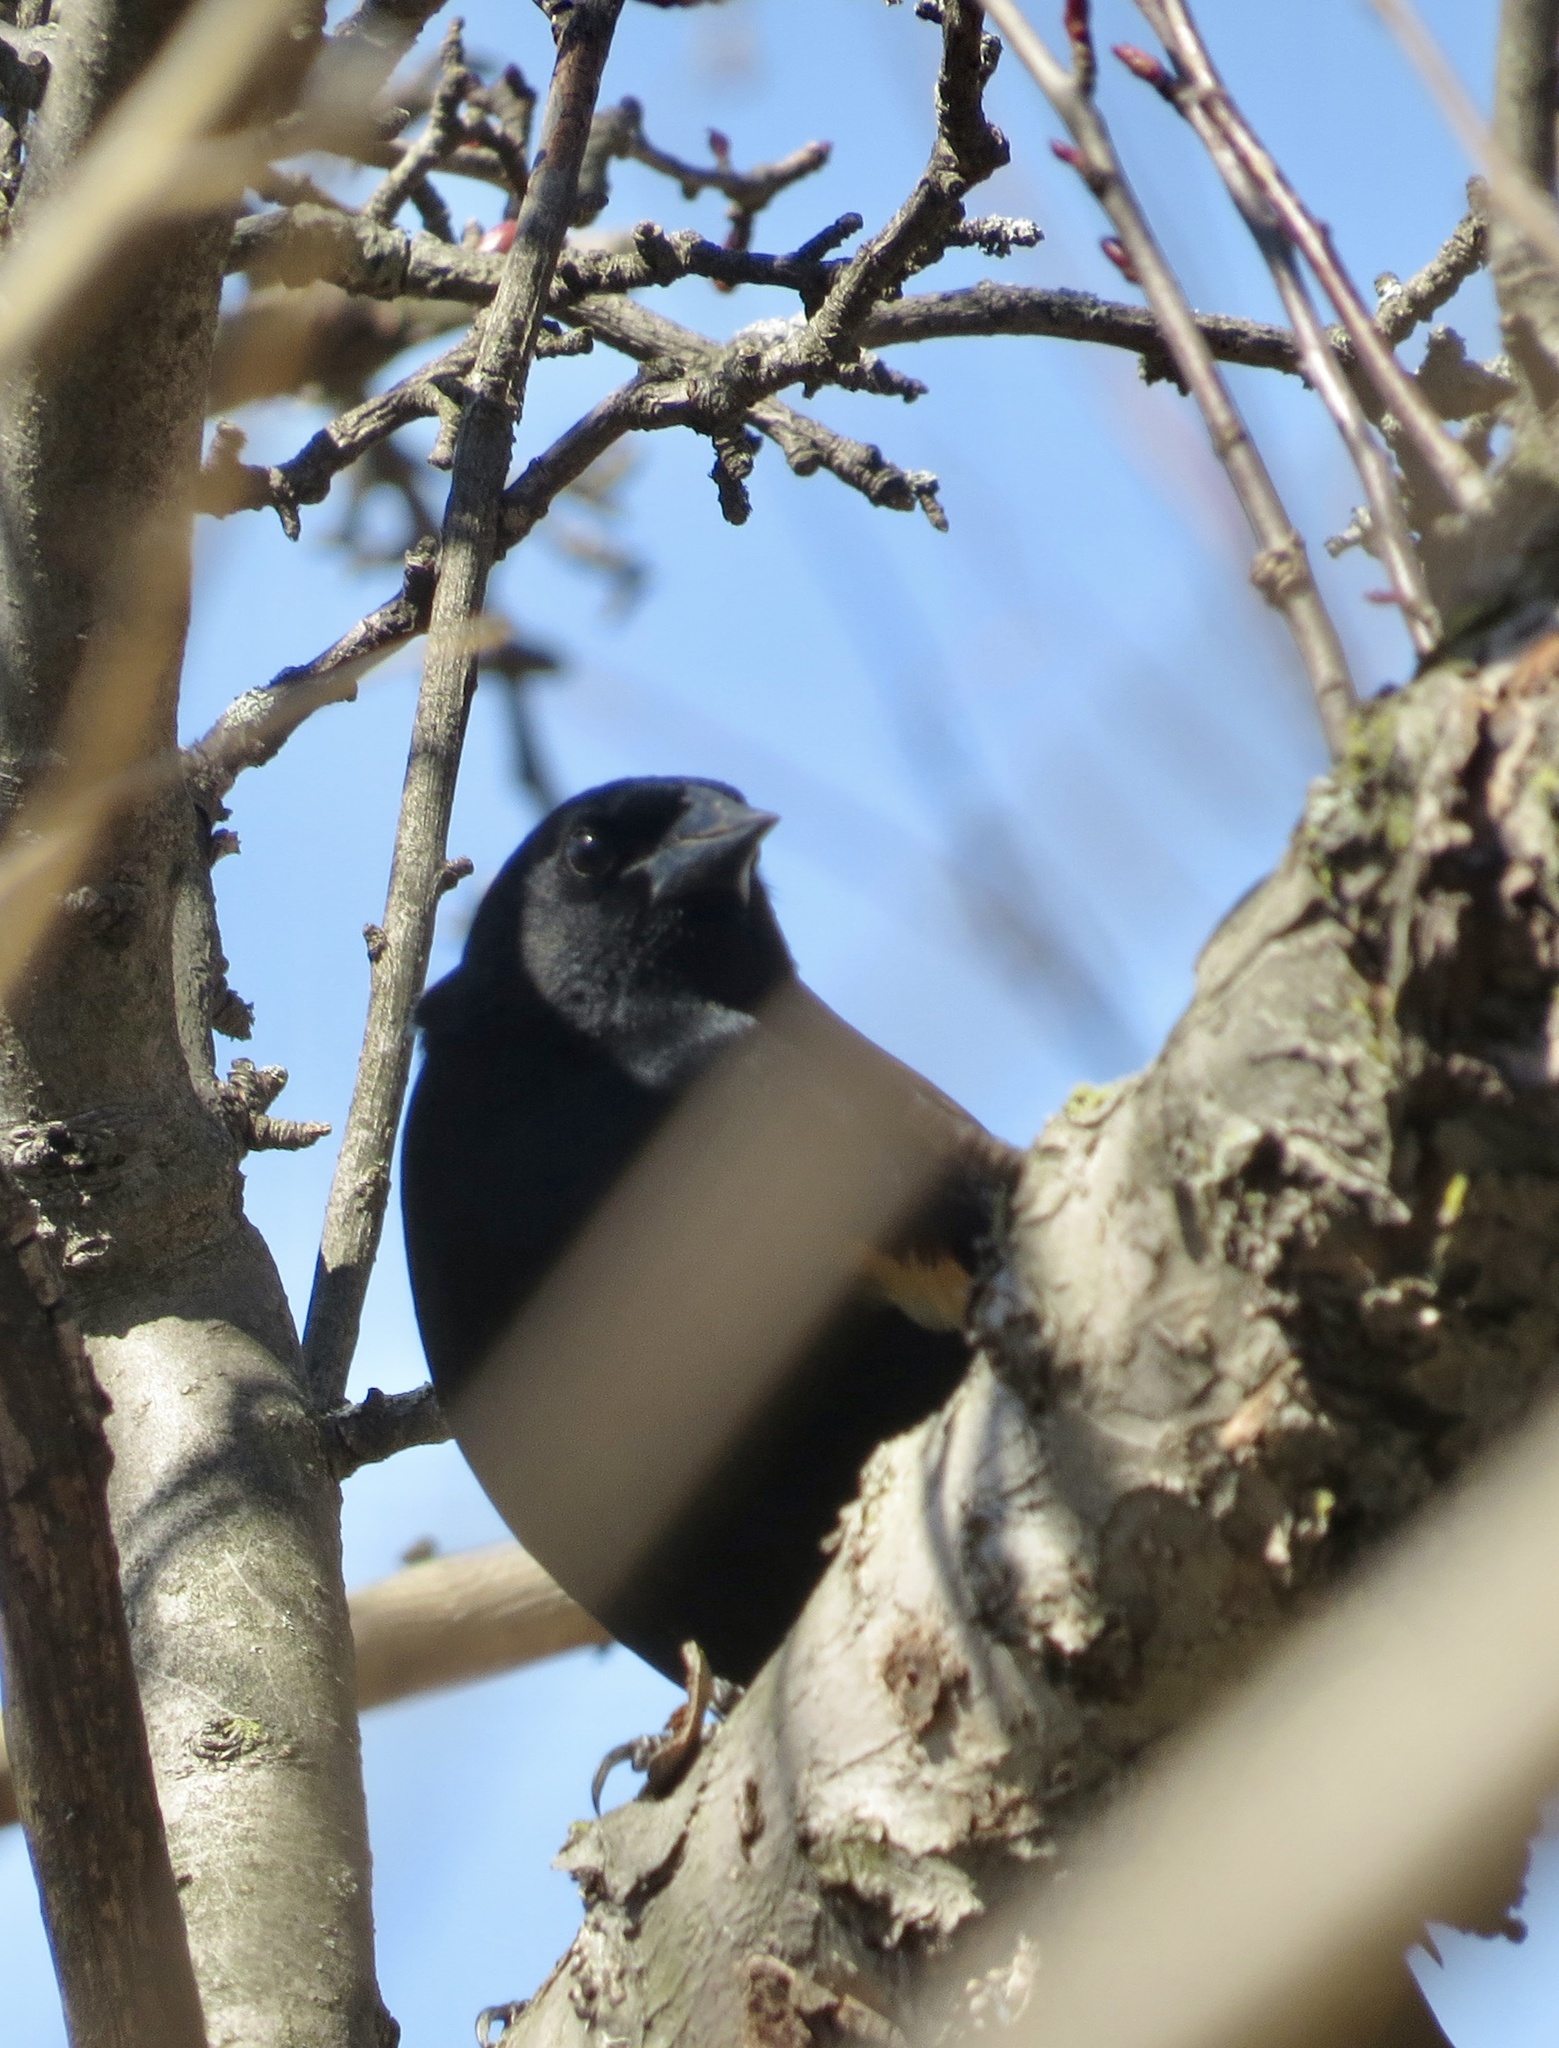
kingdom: Animalia
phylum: Chordata
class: Aves
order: Passeriformes
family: Icteridae
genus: Agelaius
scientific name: Agelaius phoeniceus
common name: Red-winged blackbird
